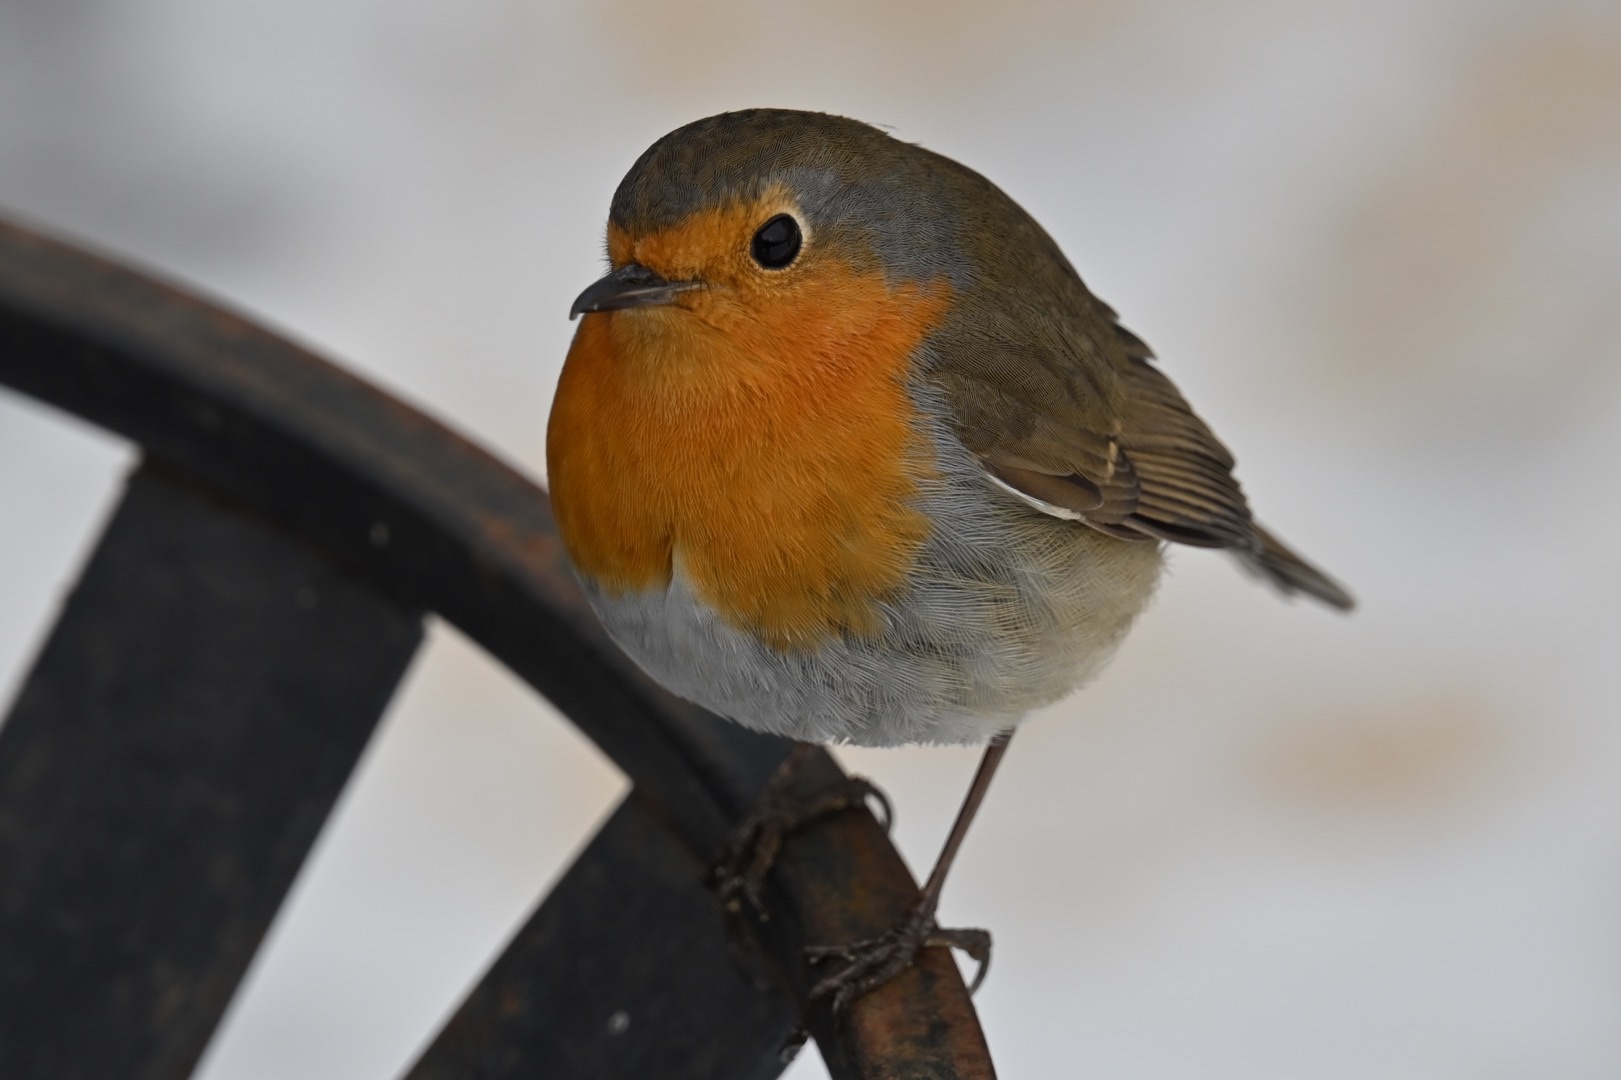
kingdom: Animalia
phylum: Chordata
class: Aves
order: Passeriformes
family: Muscicapidae
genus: Erithacus
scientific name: Erithacus rubecula
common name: European robin
